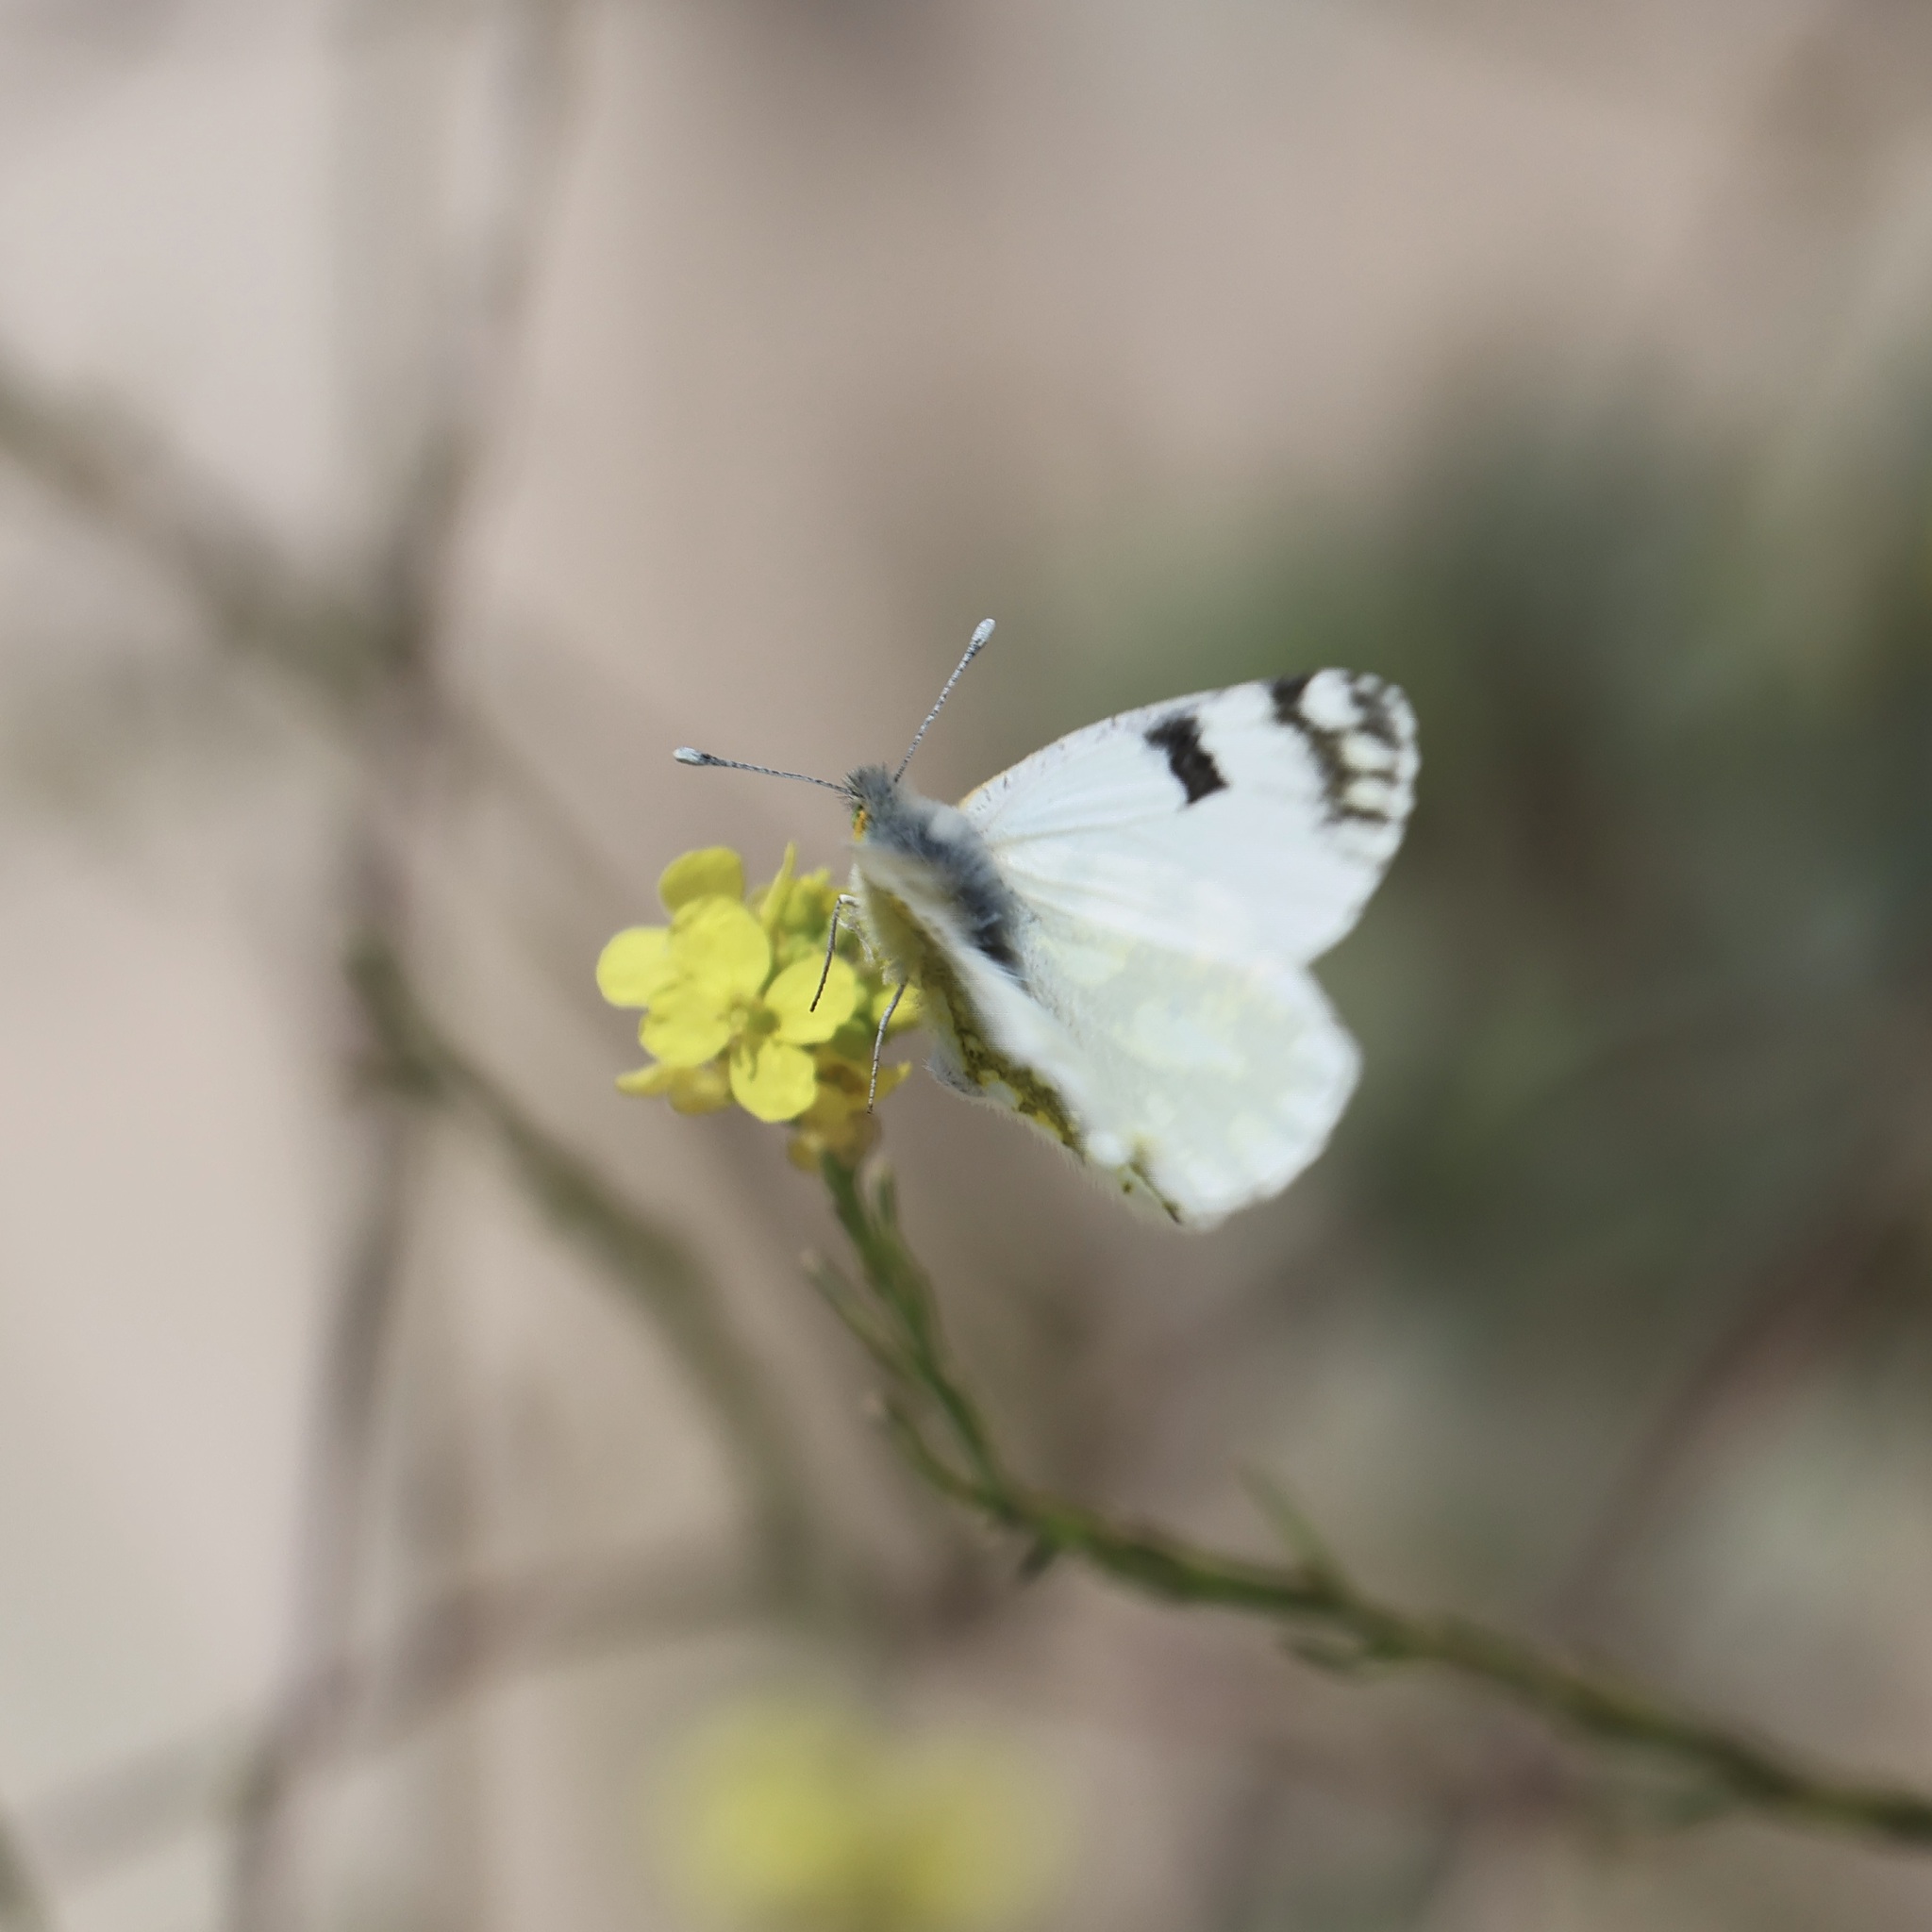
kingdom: Animalia
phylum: Arthropoda
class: Insecta
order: Lepidoptera
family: Pieridae
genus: Euchloe
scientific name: Euchloe ausonia
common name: Eastern dappled white
